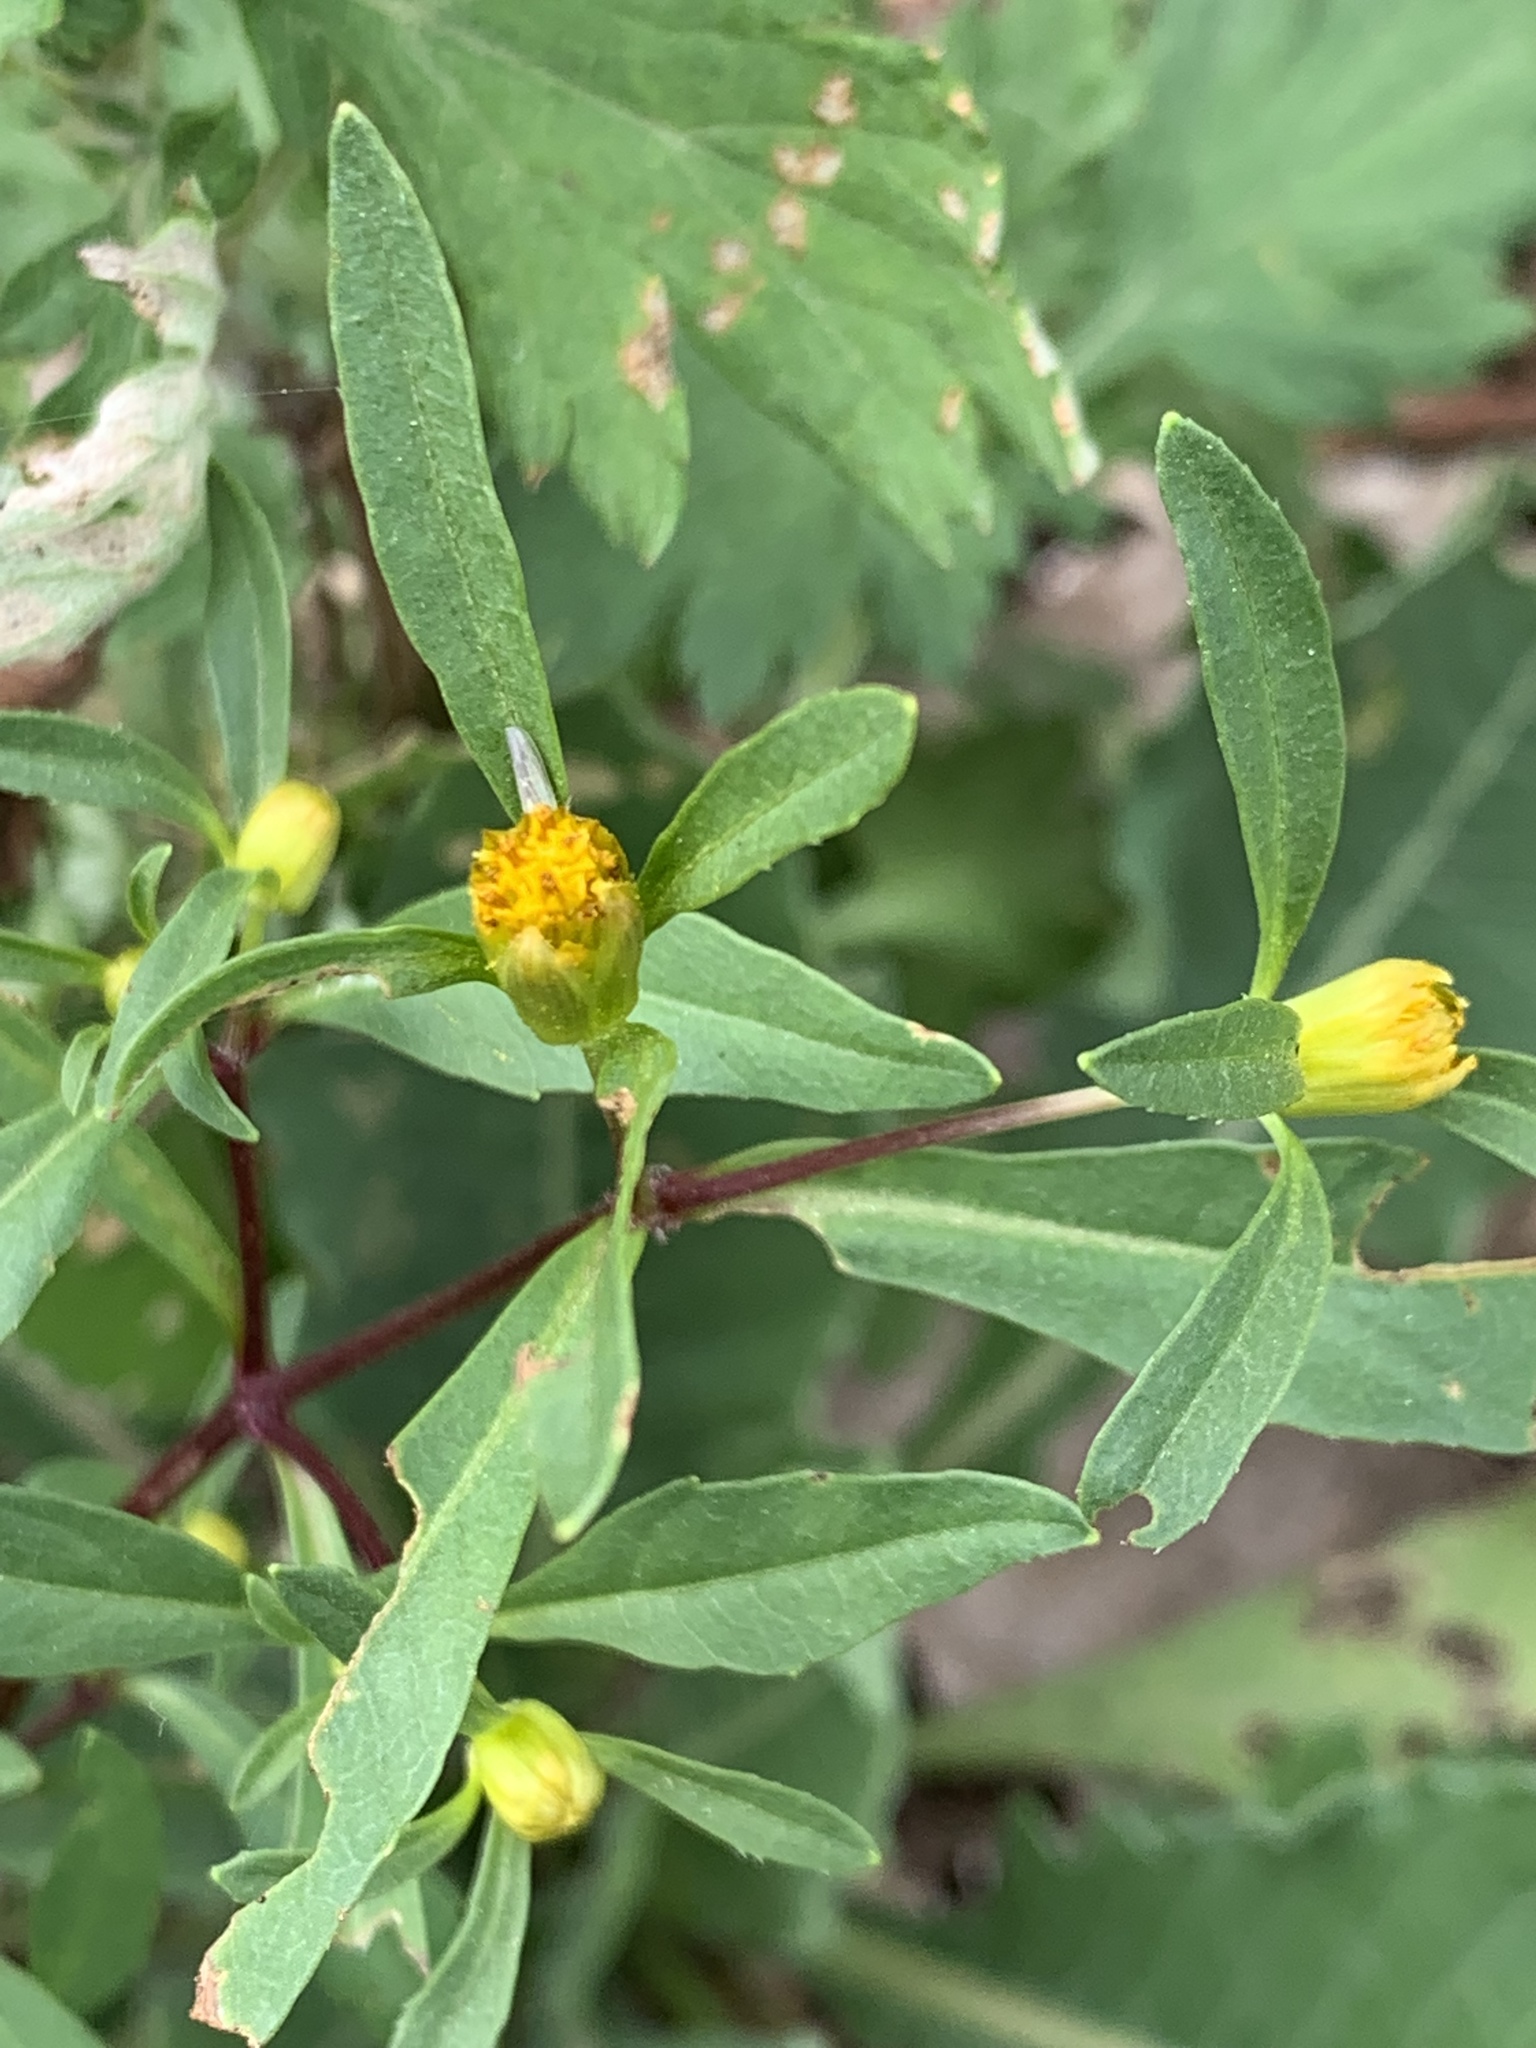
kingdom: Plantae
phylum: Tracheophyta
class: Magnoliopsida
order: Asterales
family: Asteraceae
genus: Bidens
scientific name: Bidens frondosa
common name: Beggarticks
